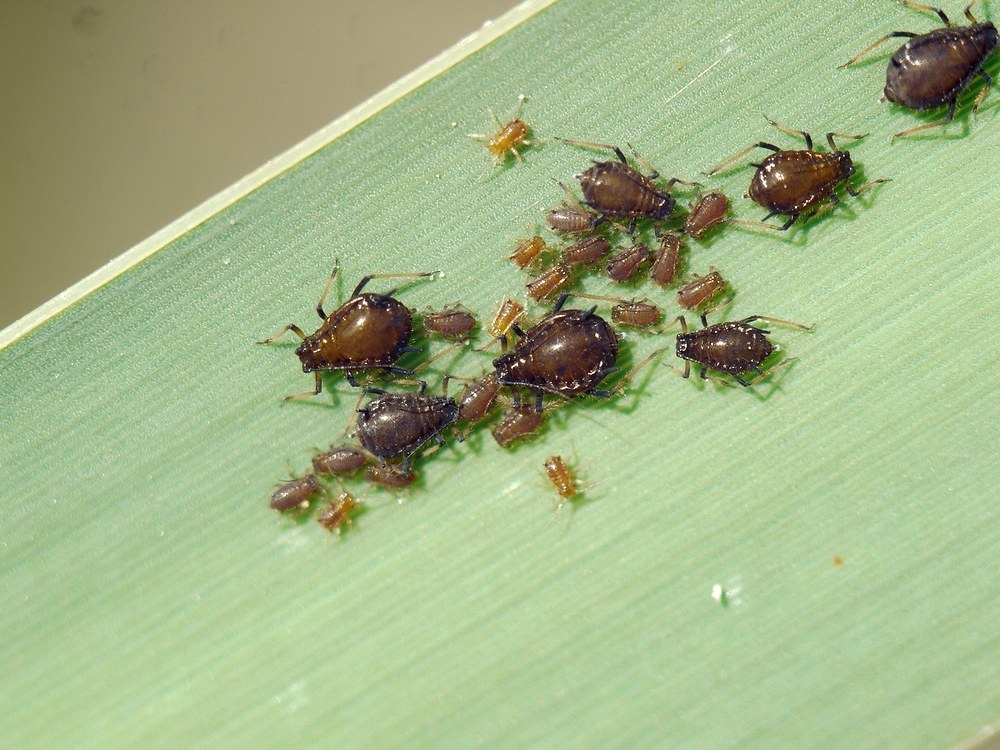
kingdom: Animalia
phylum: Arthropoda
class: Insecta
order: Hemiptera
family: Aphididae
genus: Schizaphis
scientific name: Schizaphis scirpi
